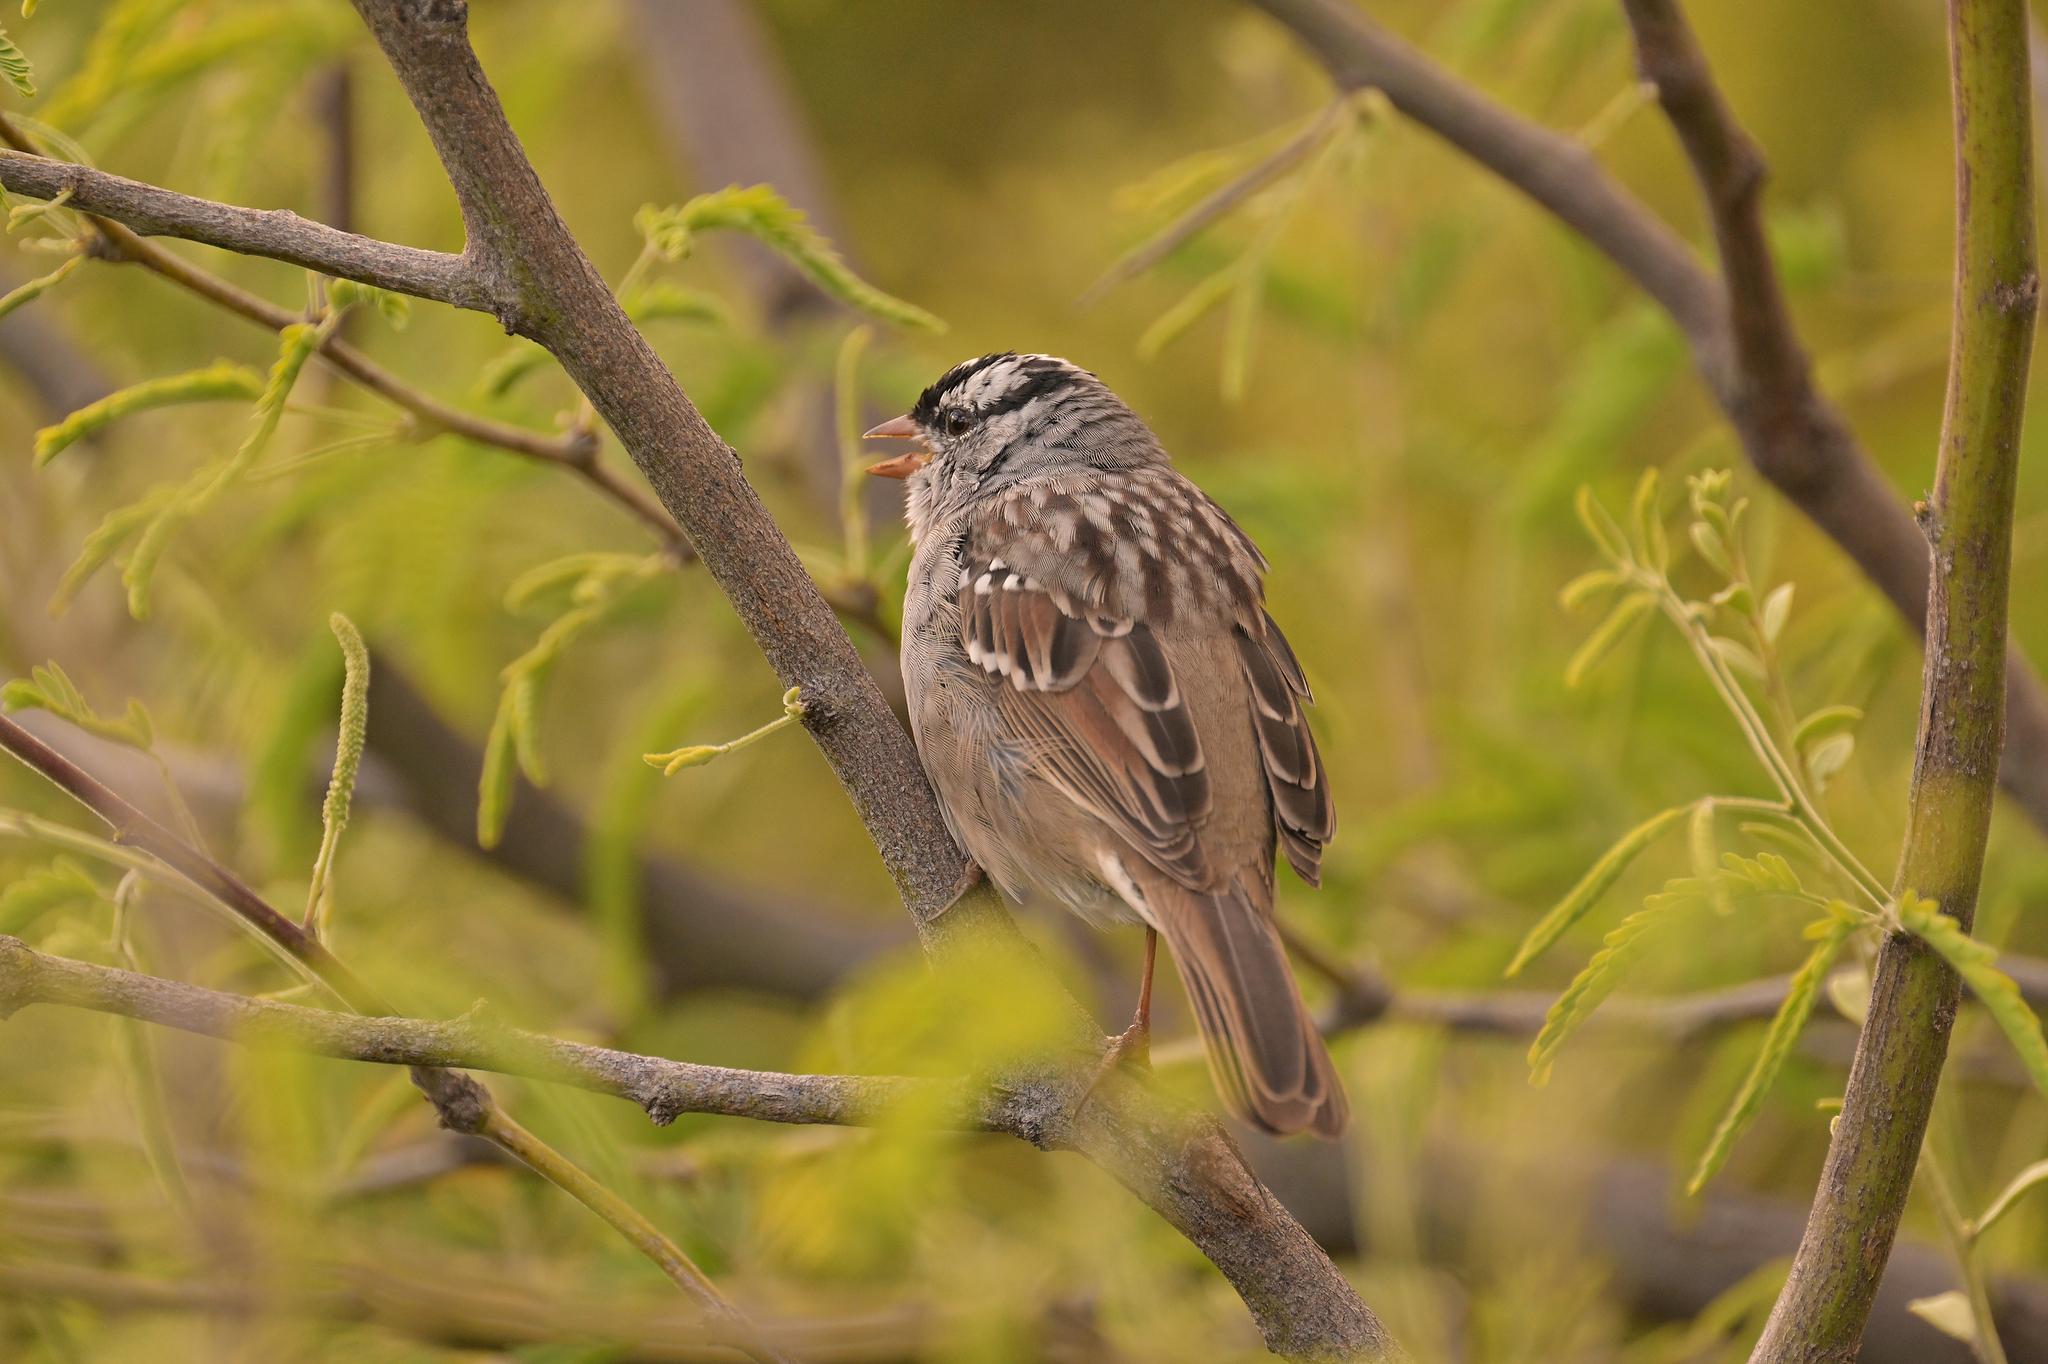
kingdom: Animalia
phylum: Chordata
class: Aves
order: Passeriformes
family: Passerellidae
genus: Zonotrichia
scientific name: Zonotrichia leucophrys
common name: White-crowned sparrow
